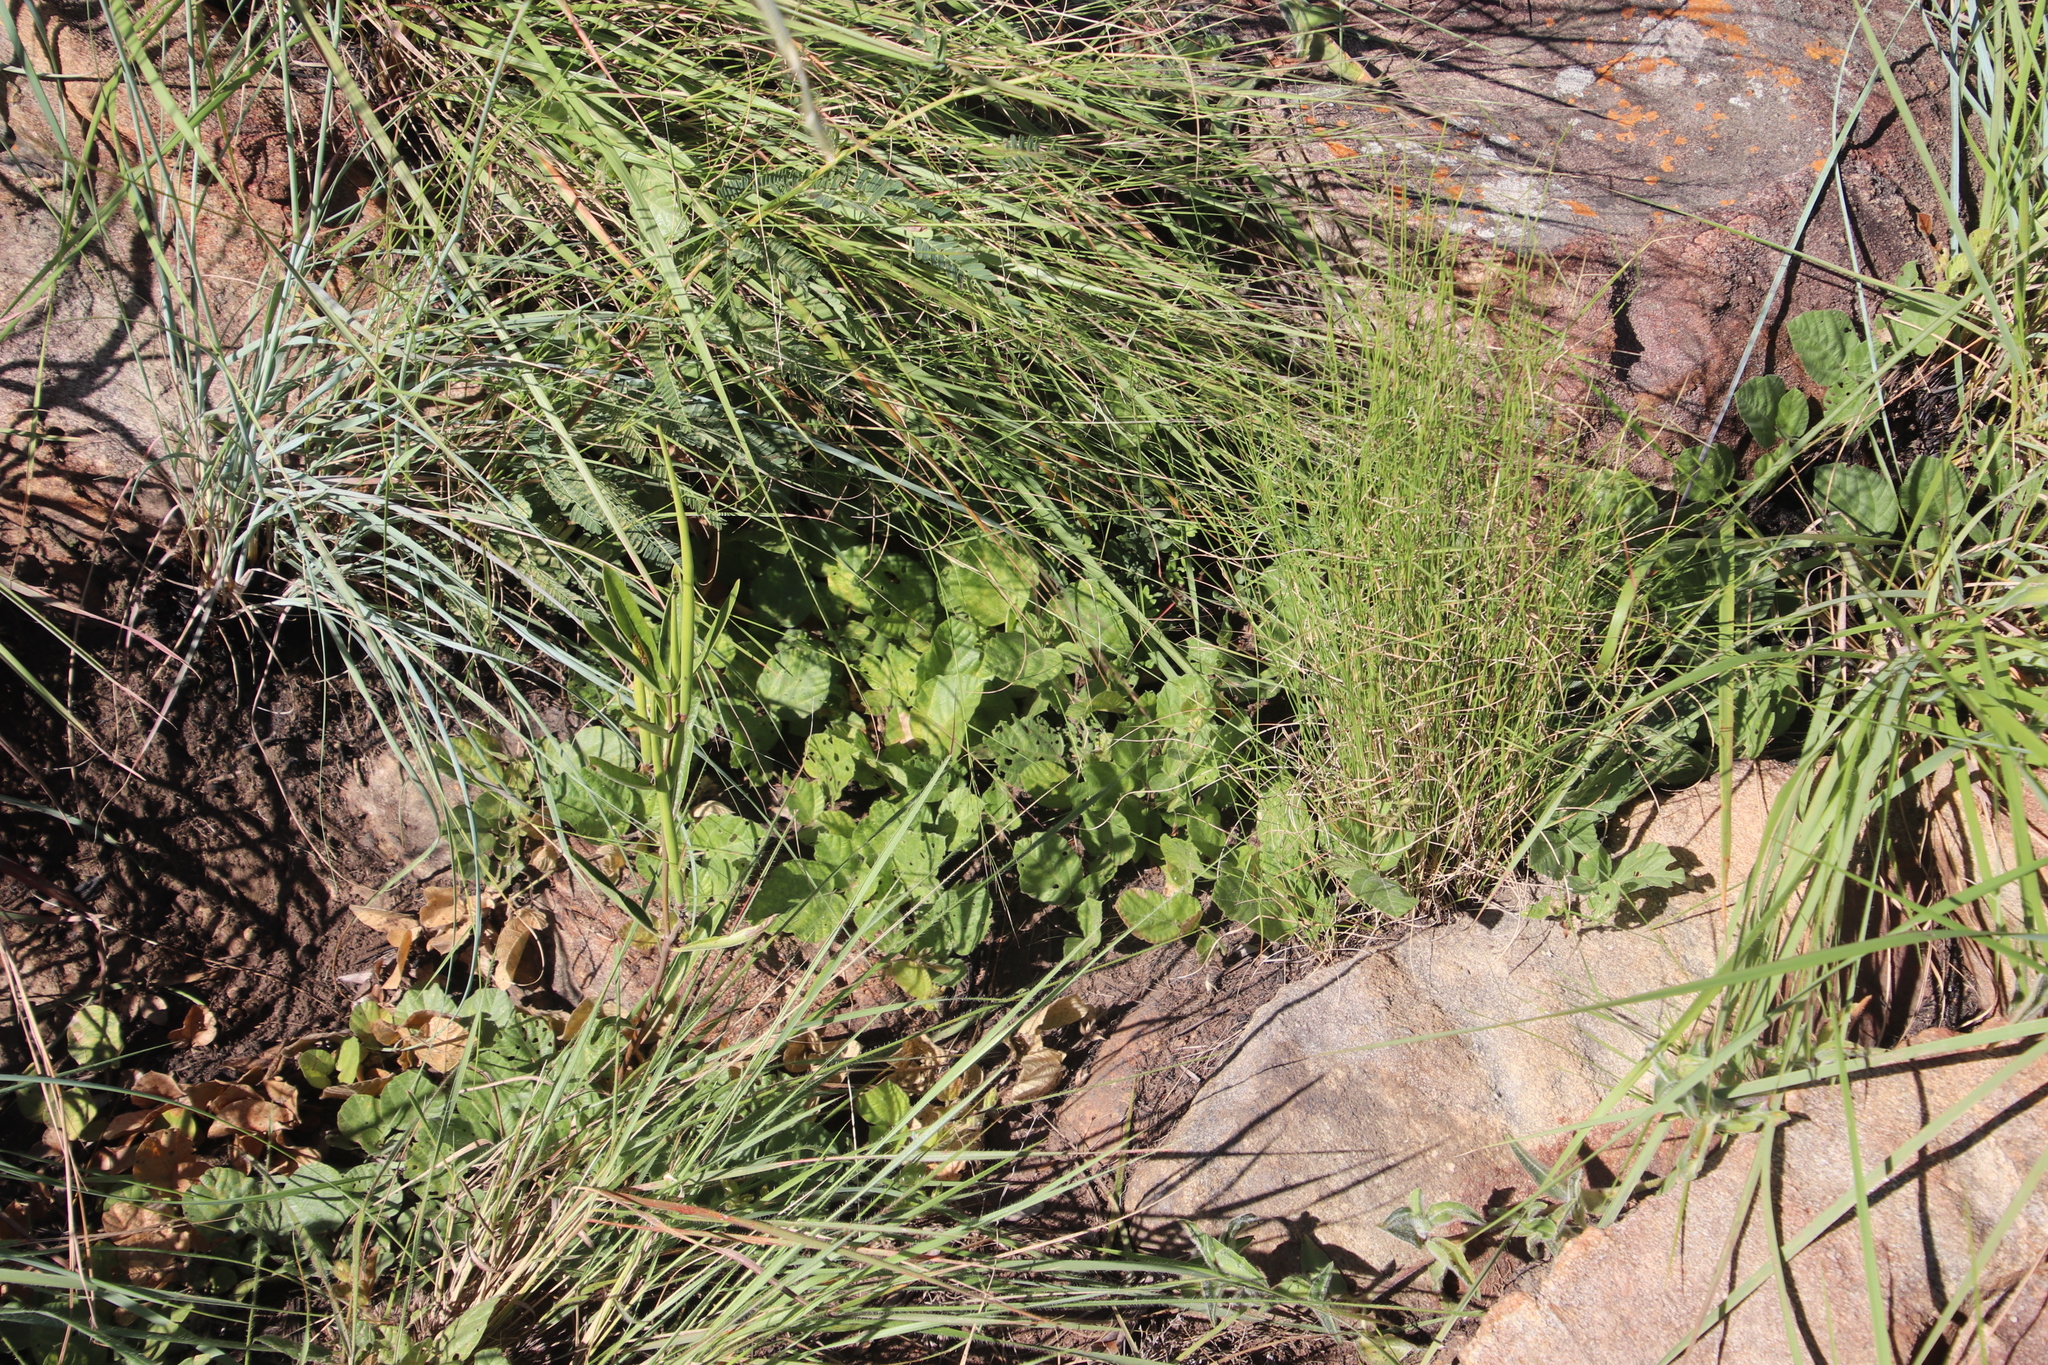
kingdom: Plantae
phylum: Tracheophyta
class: Magnoliopsida
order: Fabales
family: Fabaceae
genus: Rhynchosia
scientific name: Rhynchosia monophylla
